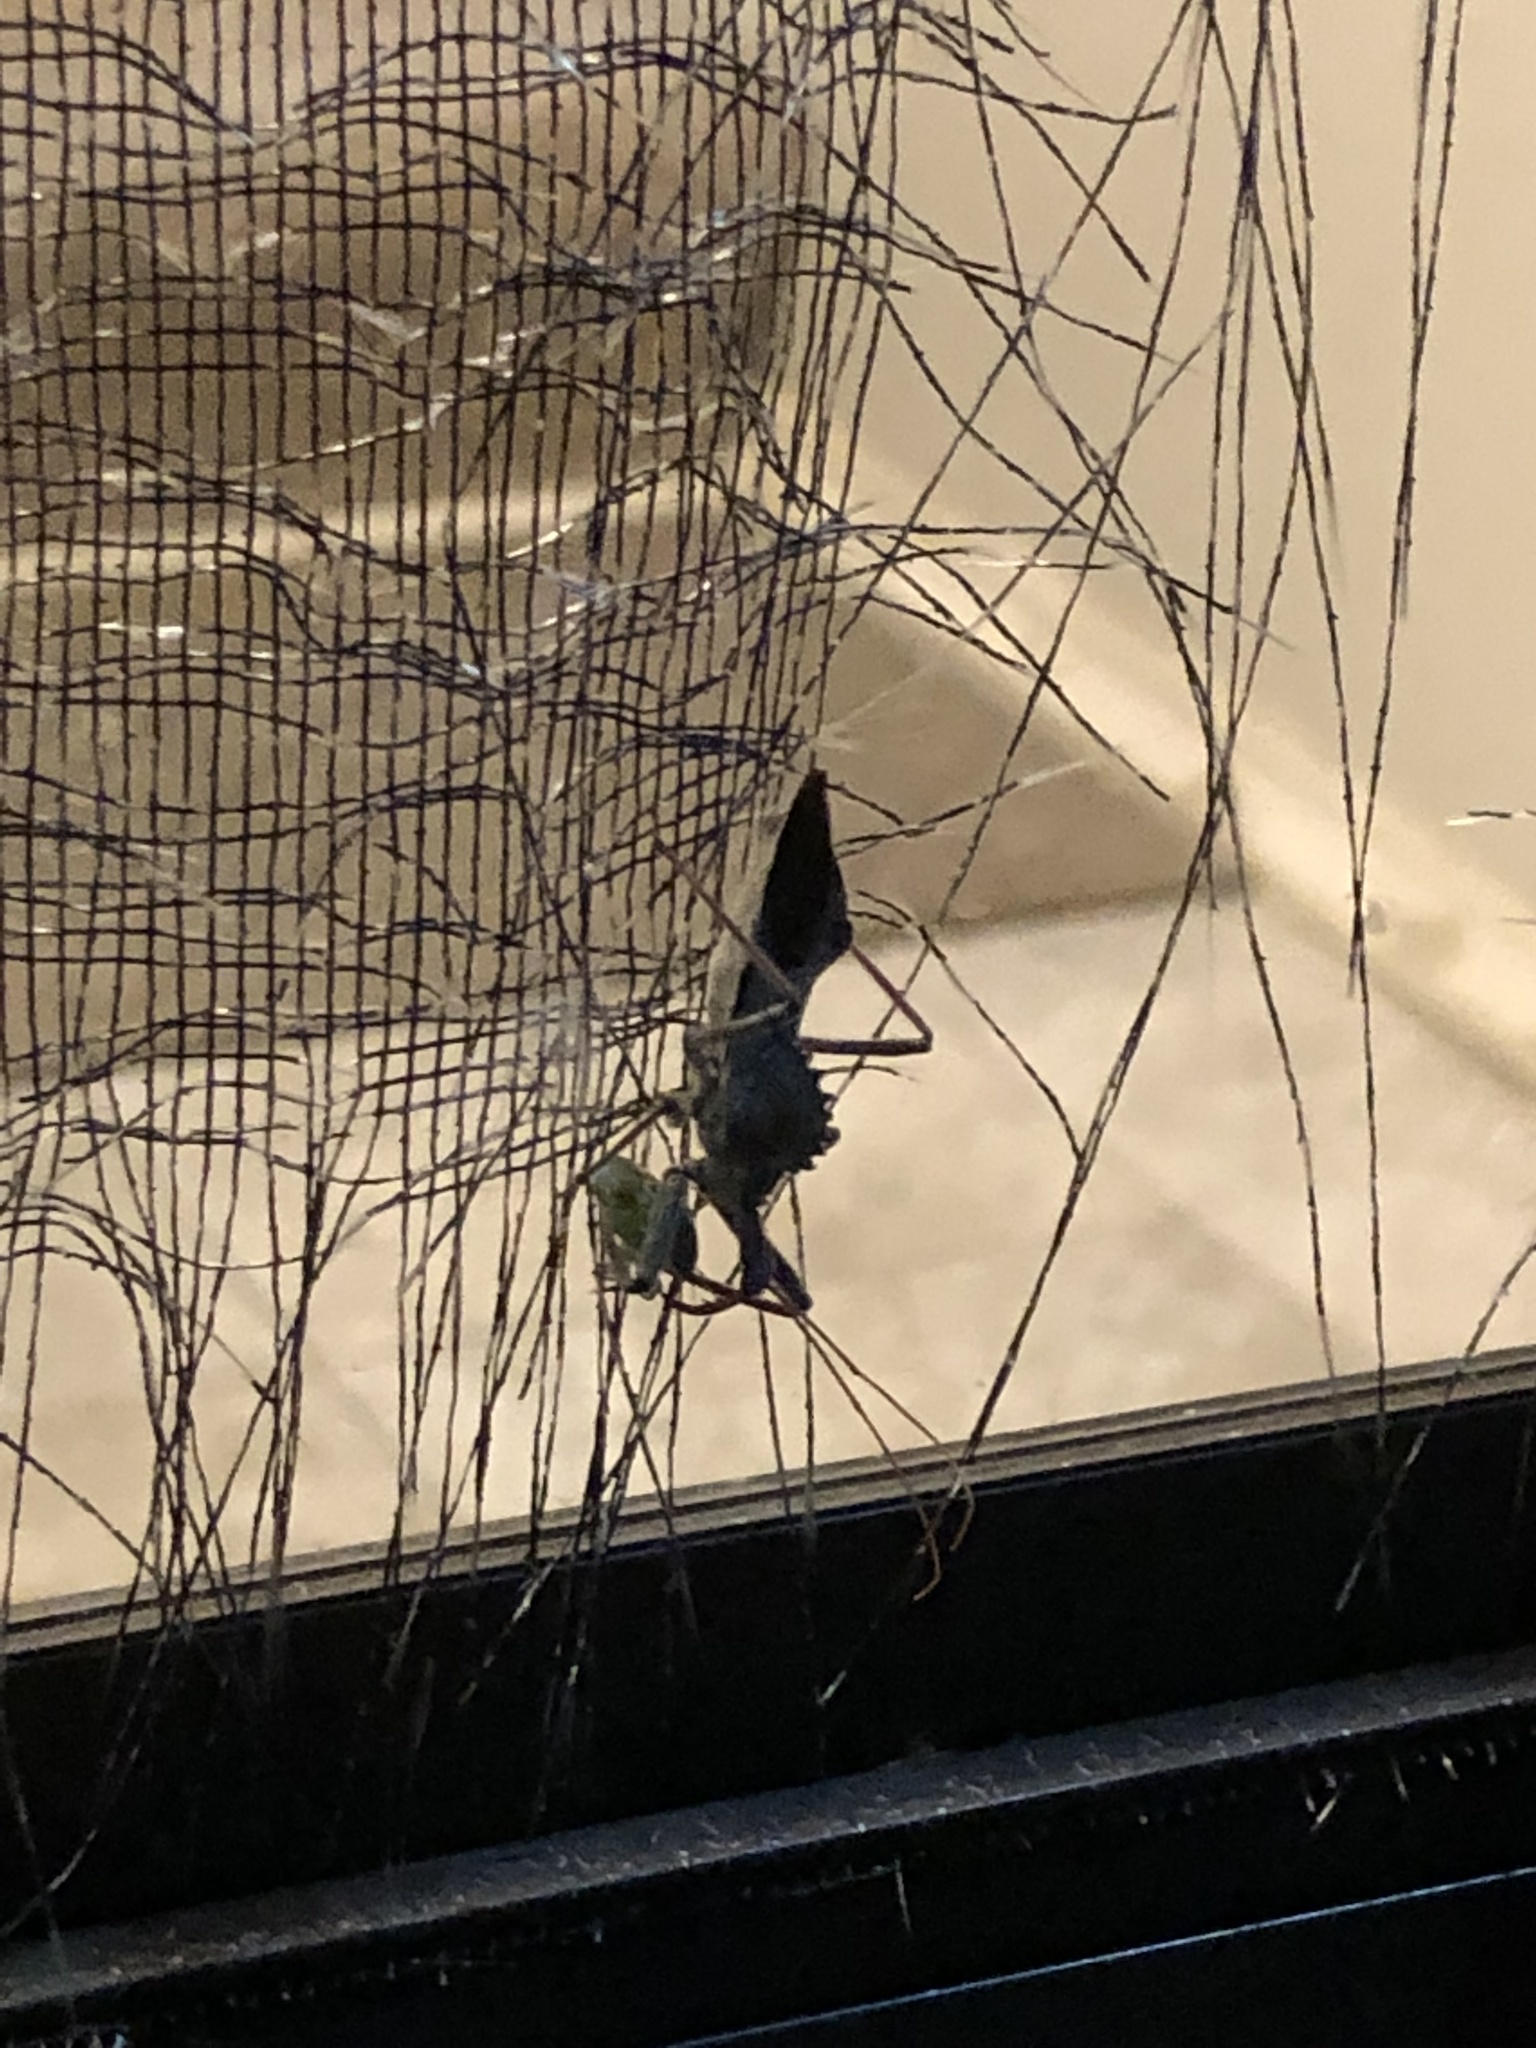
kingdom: Animalia
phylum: Arthropoda
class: Insecta
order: Hemiptera
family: Reduviidae
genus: Arilus
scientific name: Arilus cristatus
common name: North american wheel bug
